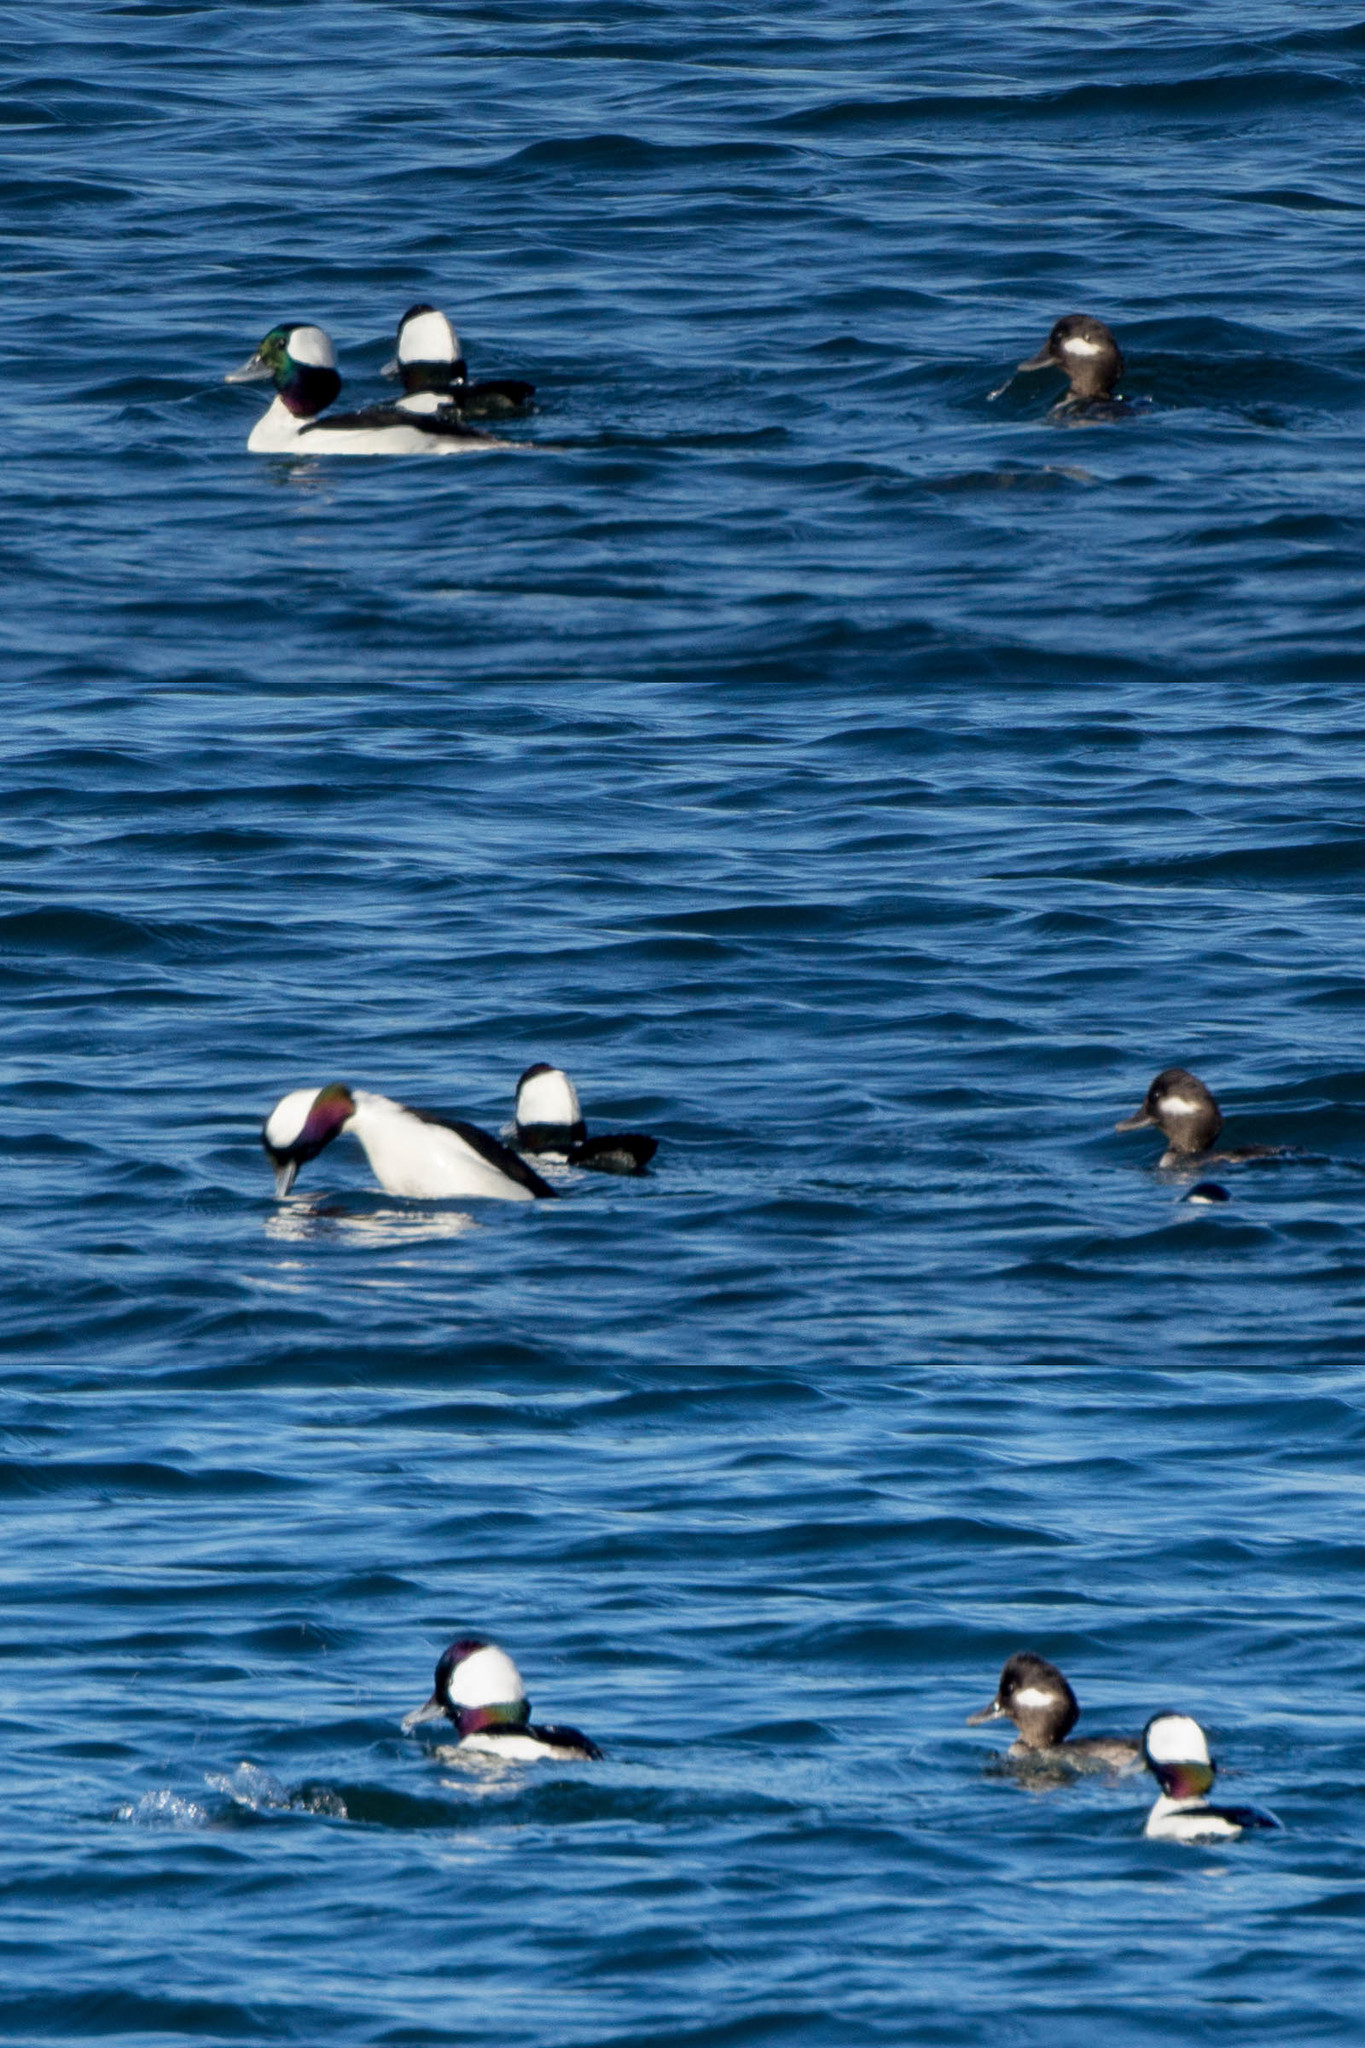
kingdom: Animalia
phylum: Chordata
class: Aves
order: Anseriformes
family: Anatidae
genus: Bucephala
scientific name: Bucephala albeola
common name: Bufflehead
